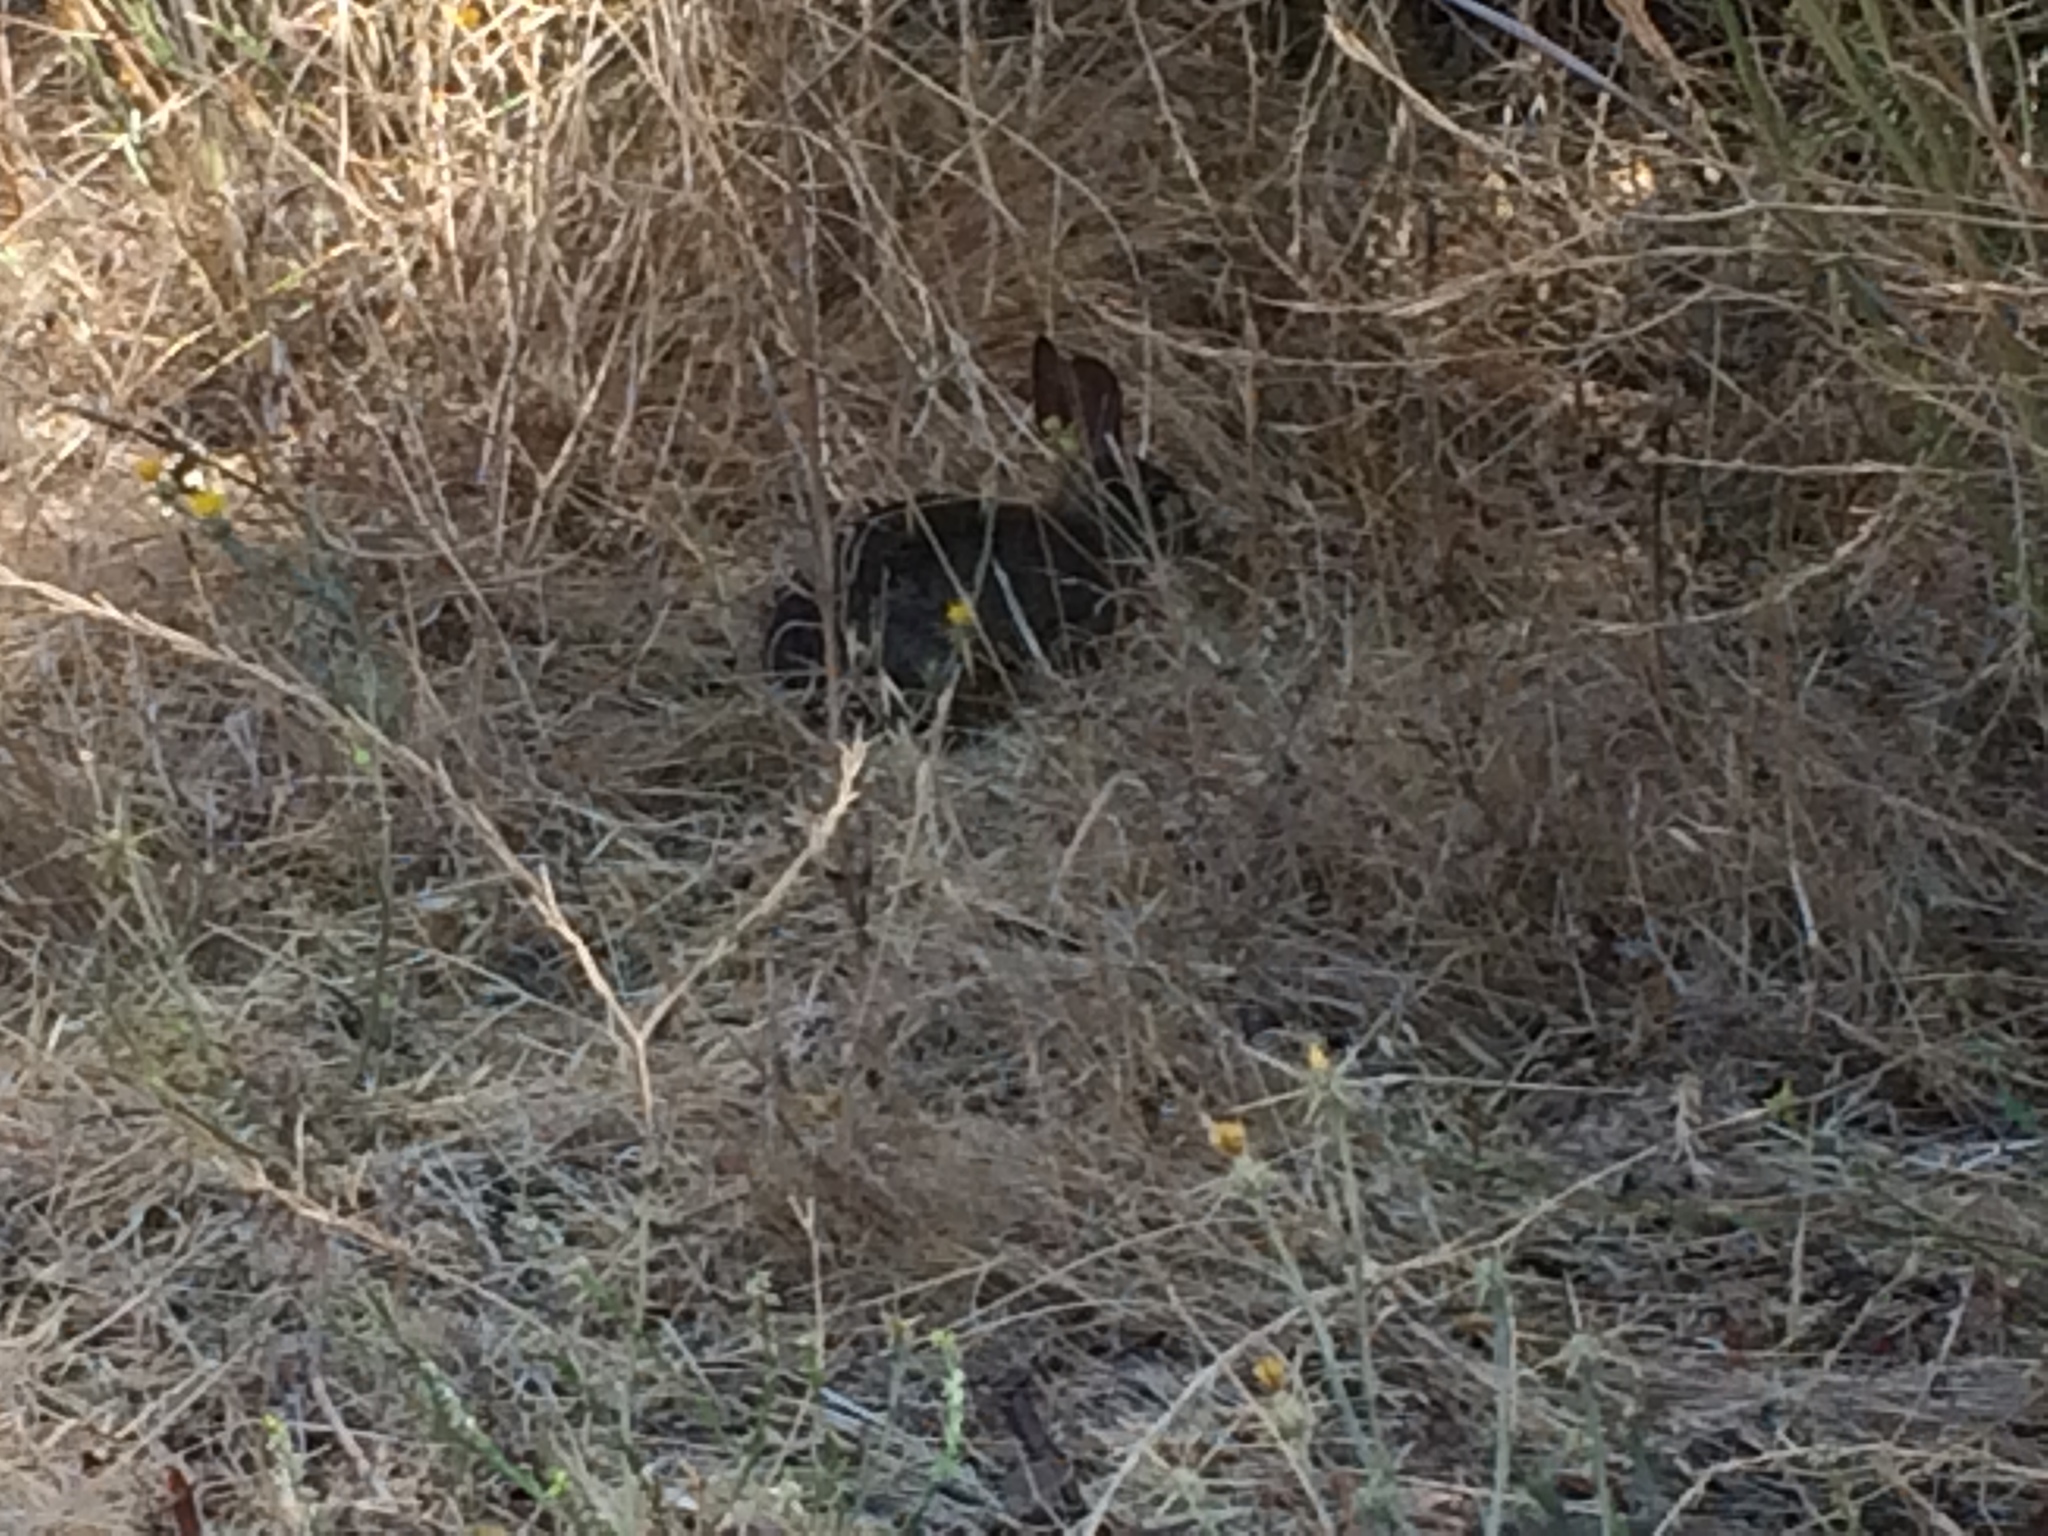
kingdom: Animalia
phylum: Chordata
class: Mammalia
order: Lagomorpha
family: Leporidae
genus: Sylvilagus
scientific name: Sylvilagus bachmani
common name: Brush rabbit
